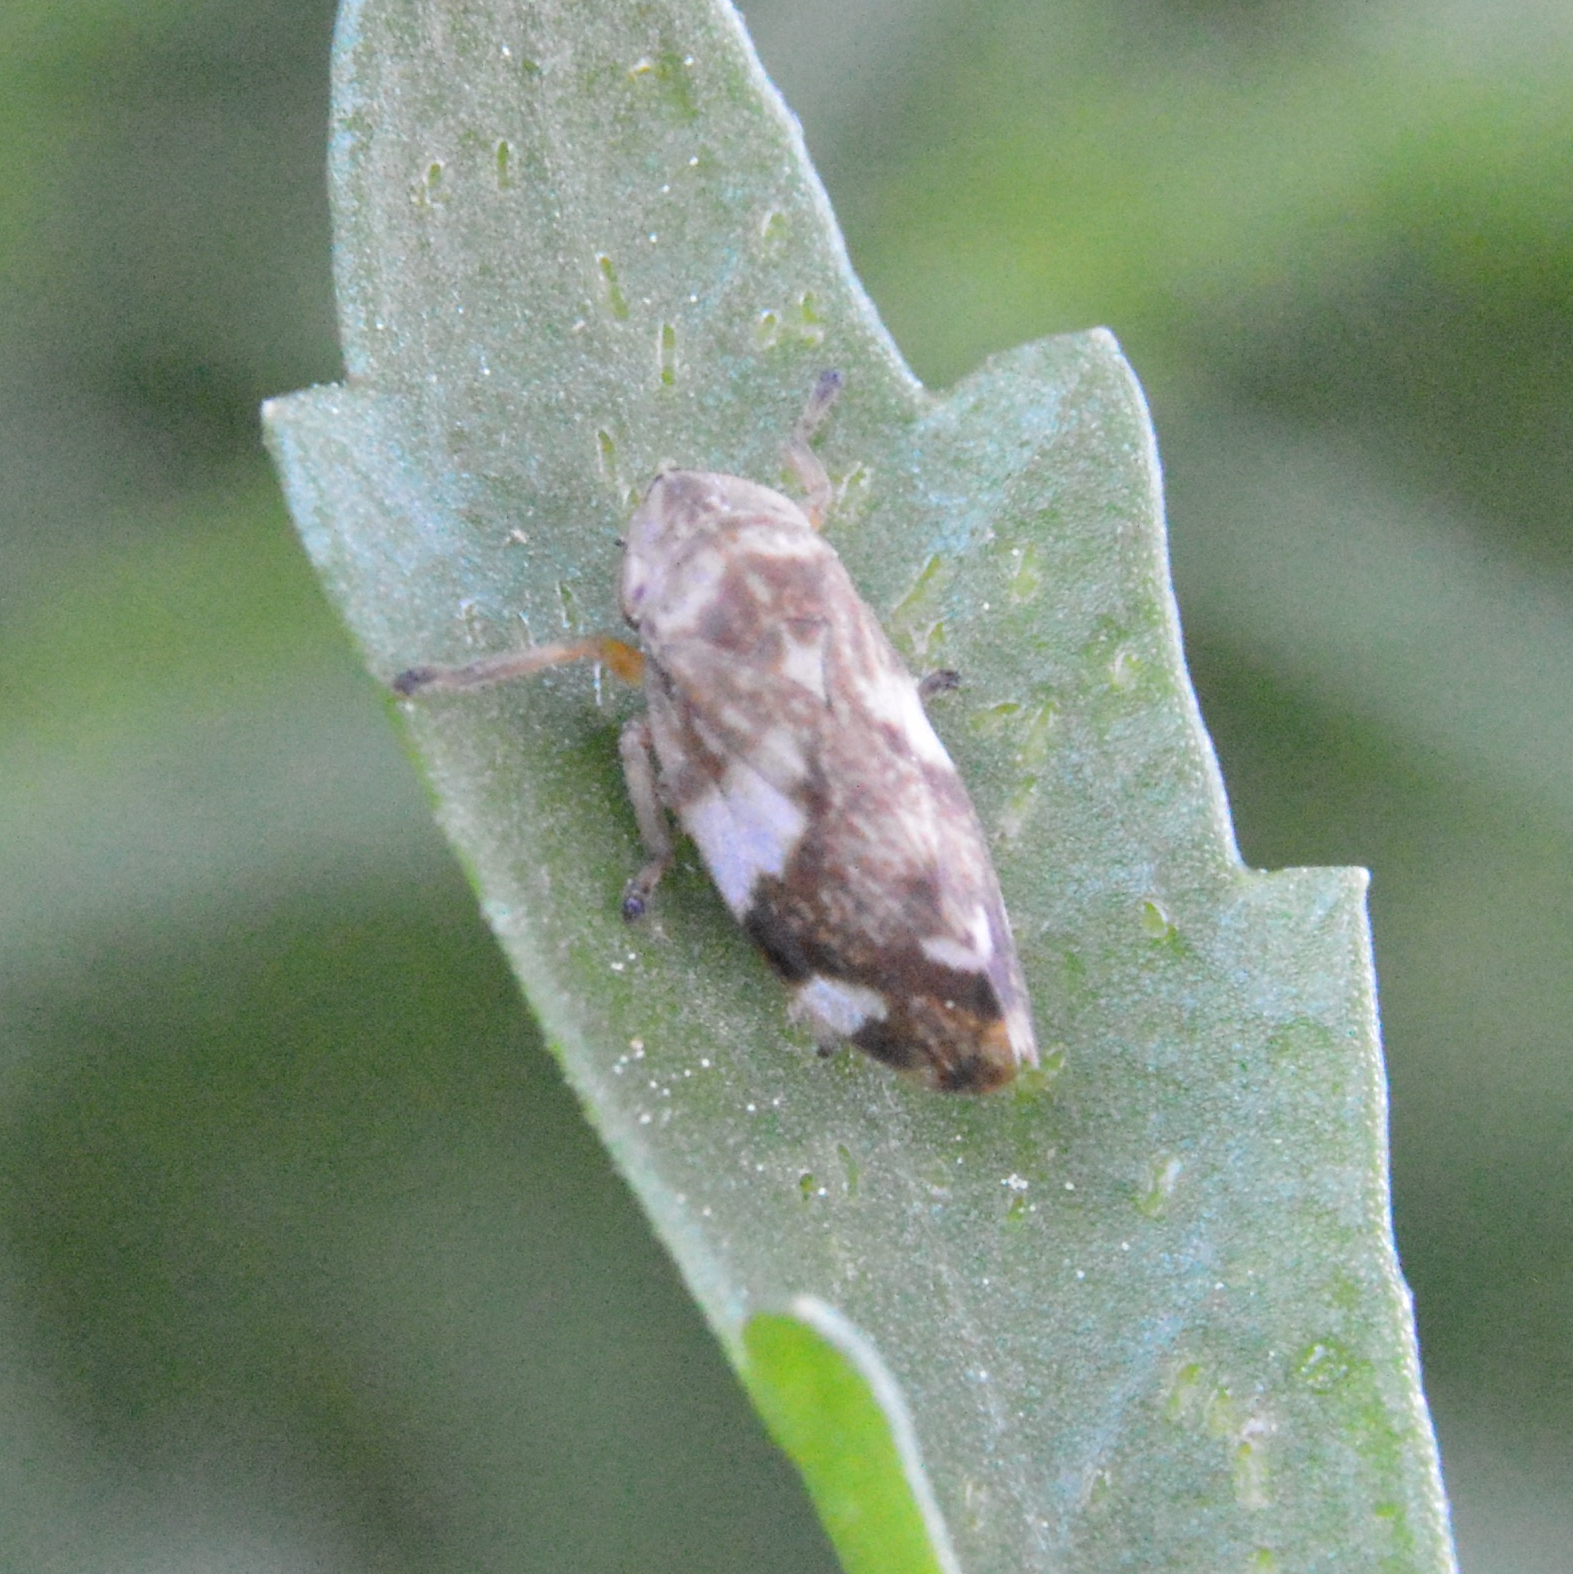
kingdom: Animalia
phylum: Arthropoda
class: Insecta
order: Hemiptera
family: Aphrophoridae
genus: Philaenus
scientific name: Philaenus spumarius
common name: Meadow spittlebug
